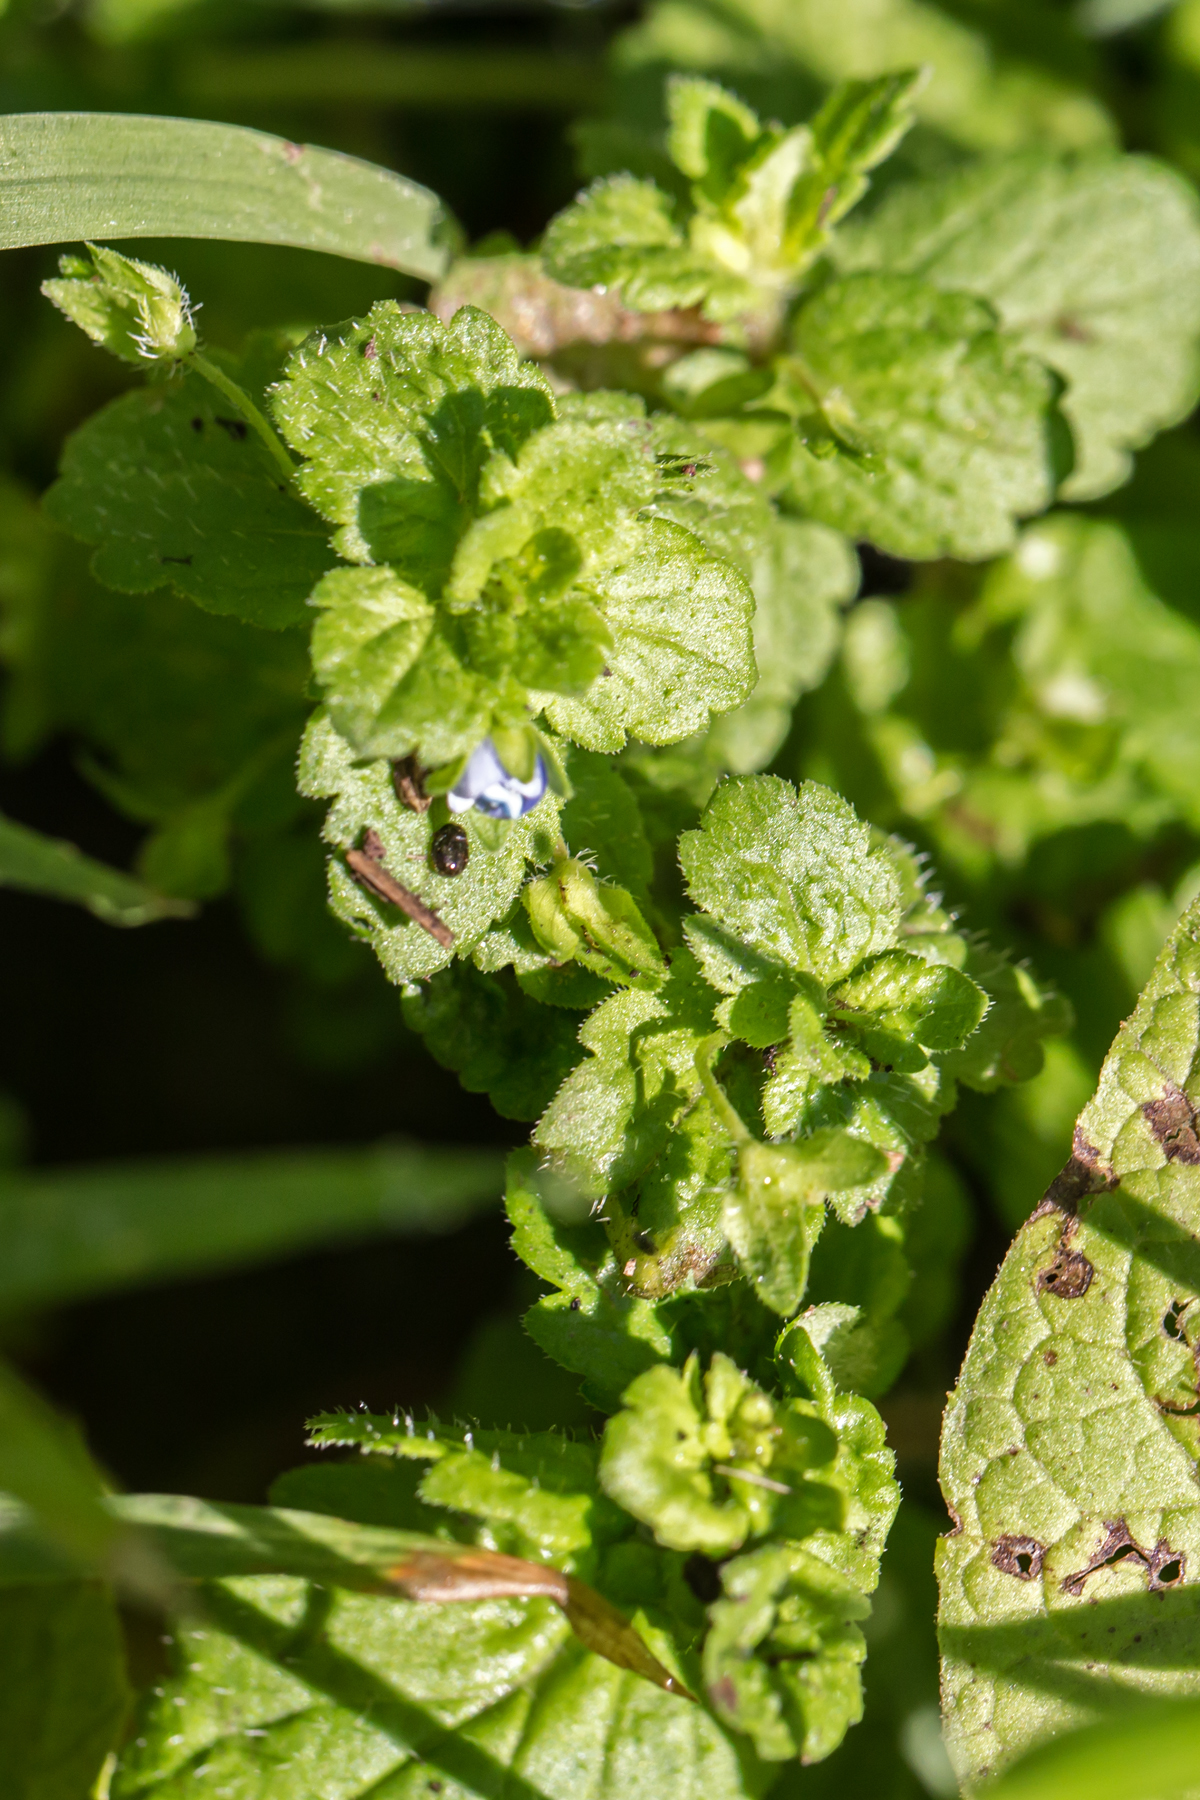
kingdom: Plantae
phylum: Tracheophyta
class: Magnoliopsida
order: Lamiales
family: Plantaginaceae
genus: Veronica
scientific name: Veronica persica
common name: Common field-speedwell
